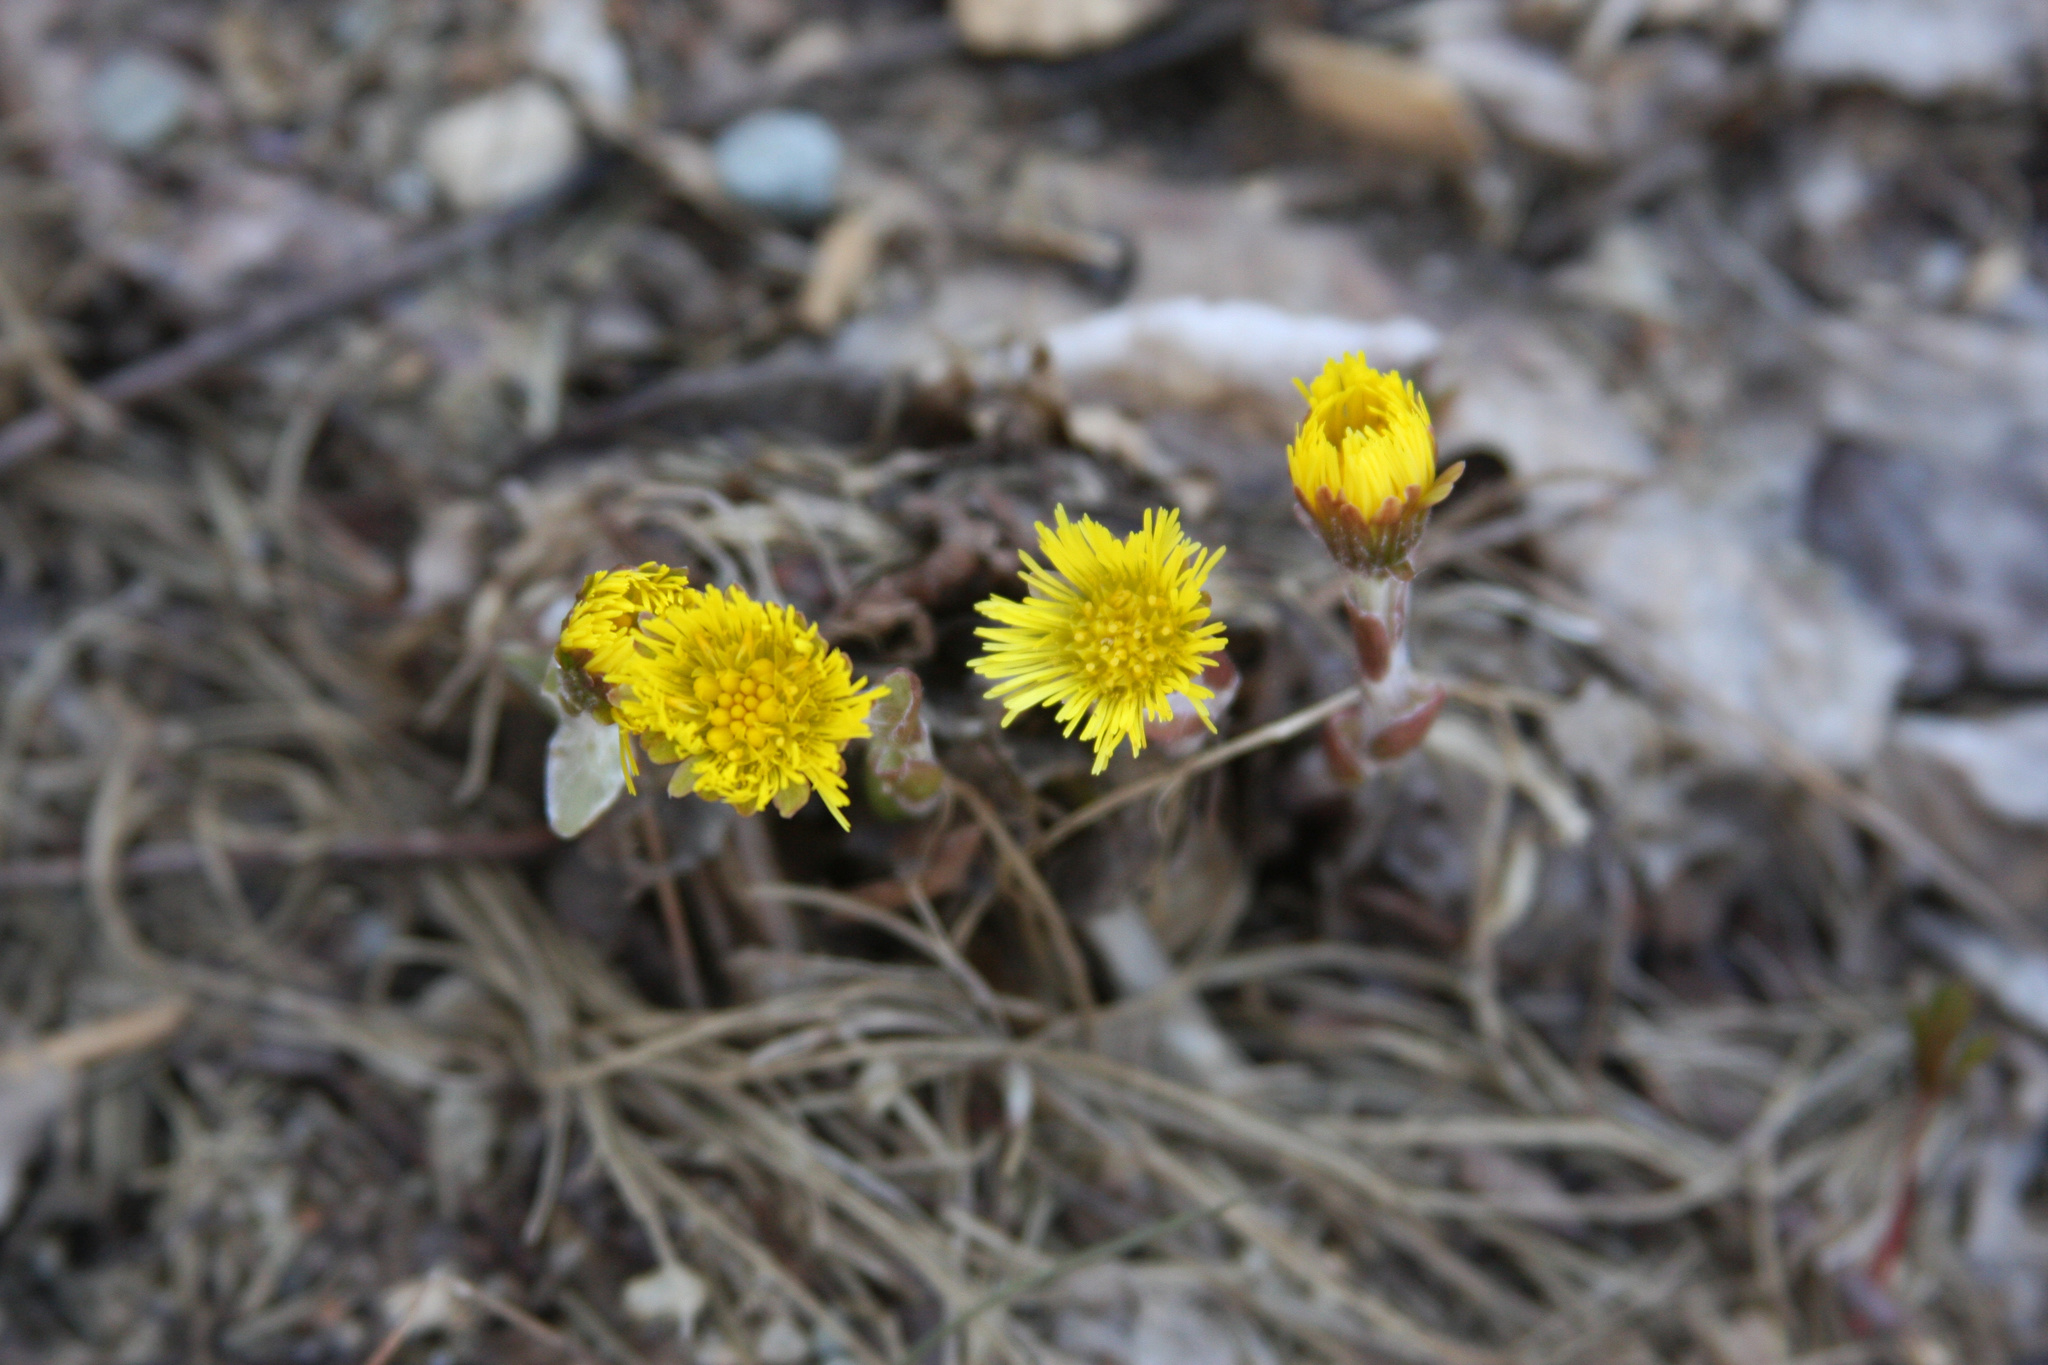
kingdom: Plantae
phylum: Tracheophyta
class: Magnoliopsida
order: Asterales
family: Asteraceae
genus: Tussilago
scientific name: Tussilago farfara
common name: Coltsfoot
